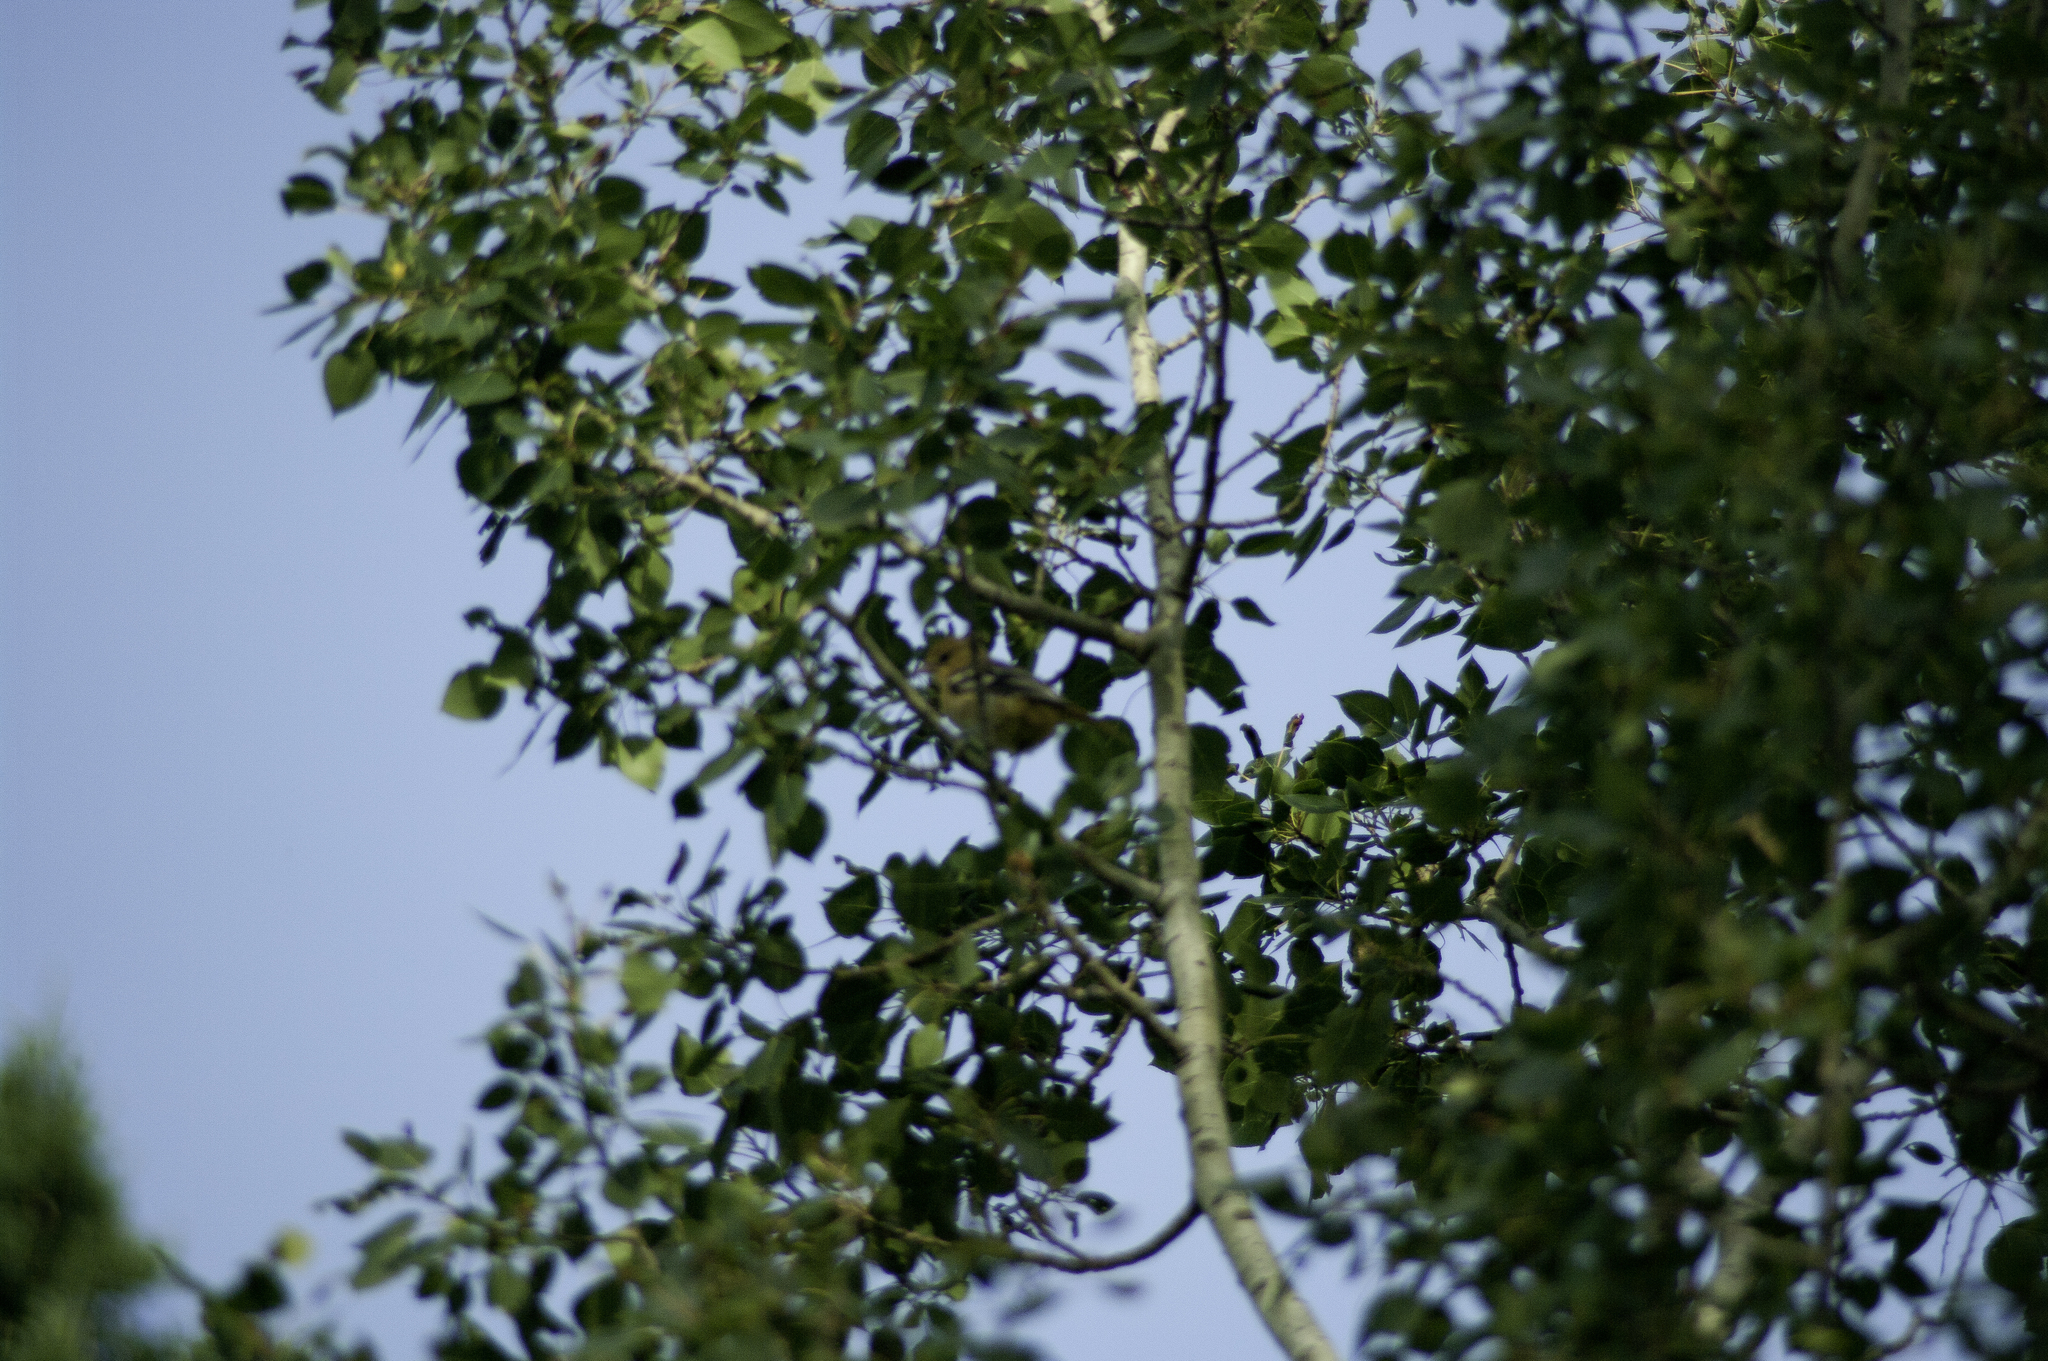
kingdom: Animalia
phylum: Chordata
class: Aves
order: Passeriformes
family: Icteridae
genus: Icterus
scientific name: Icterus galbula
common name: Baltimore oriole
